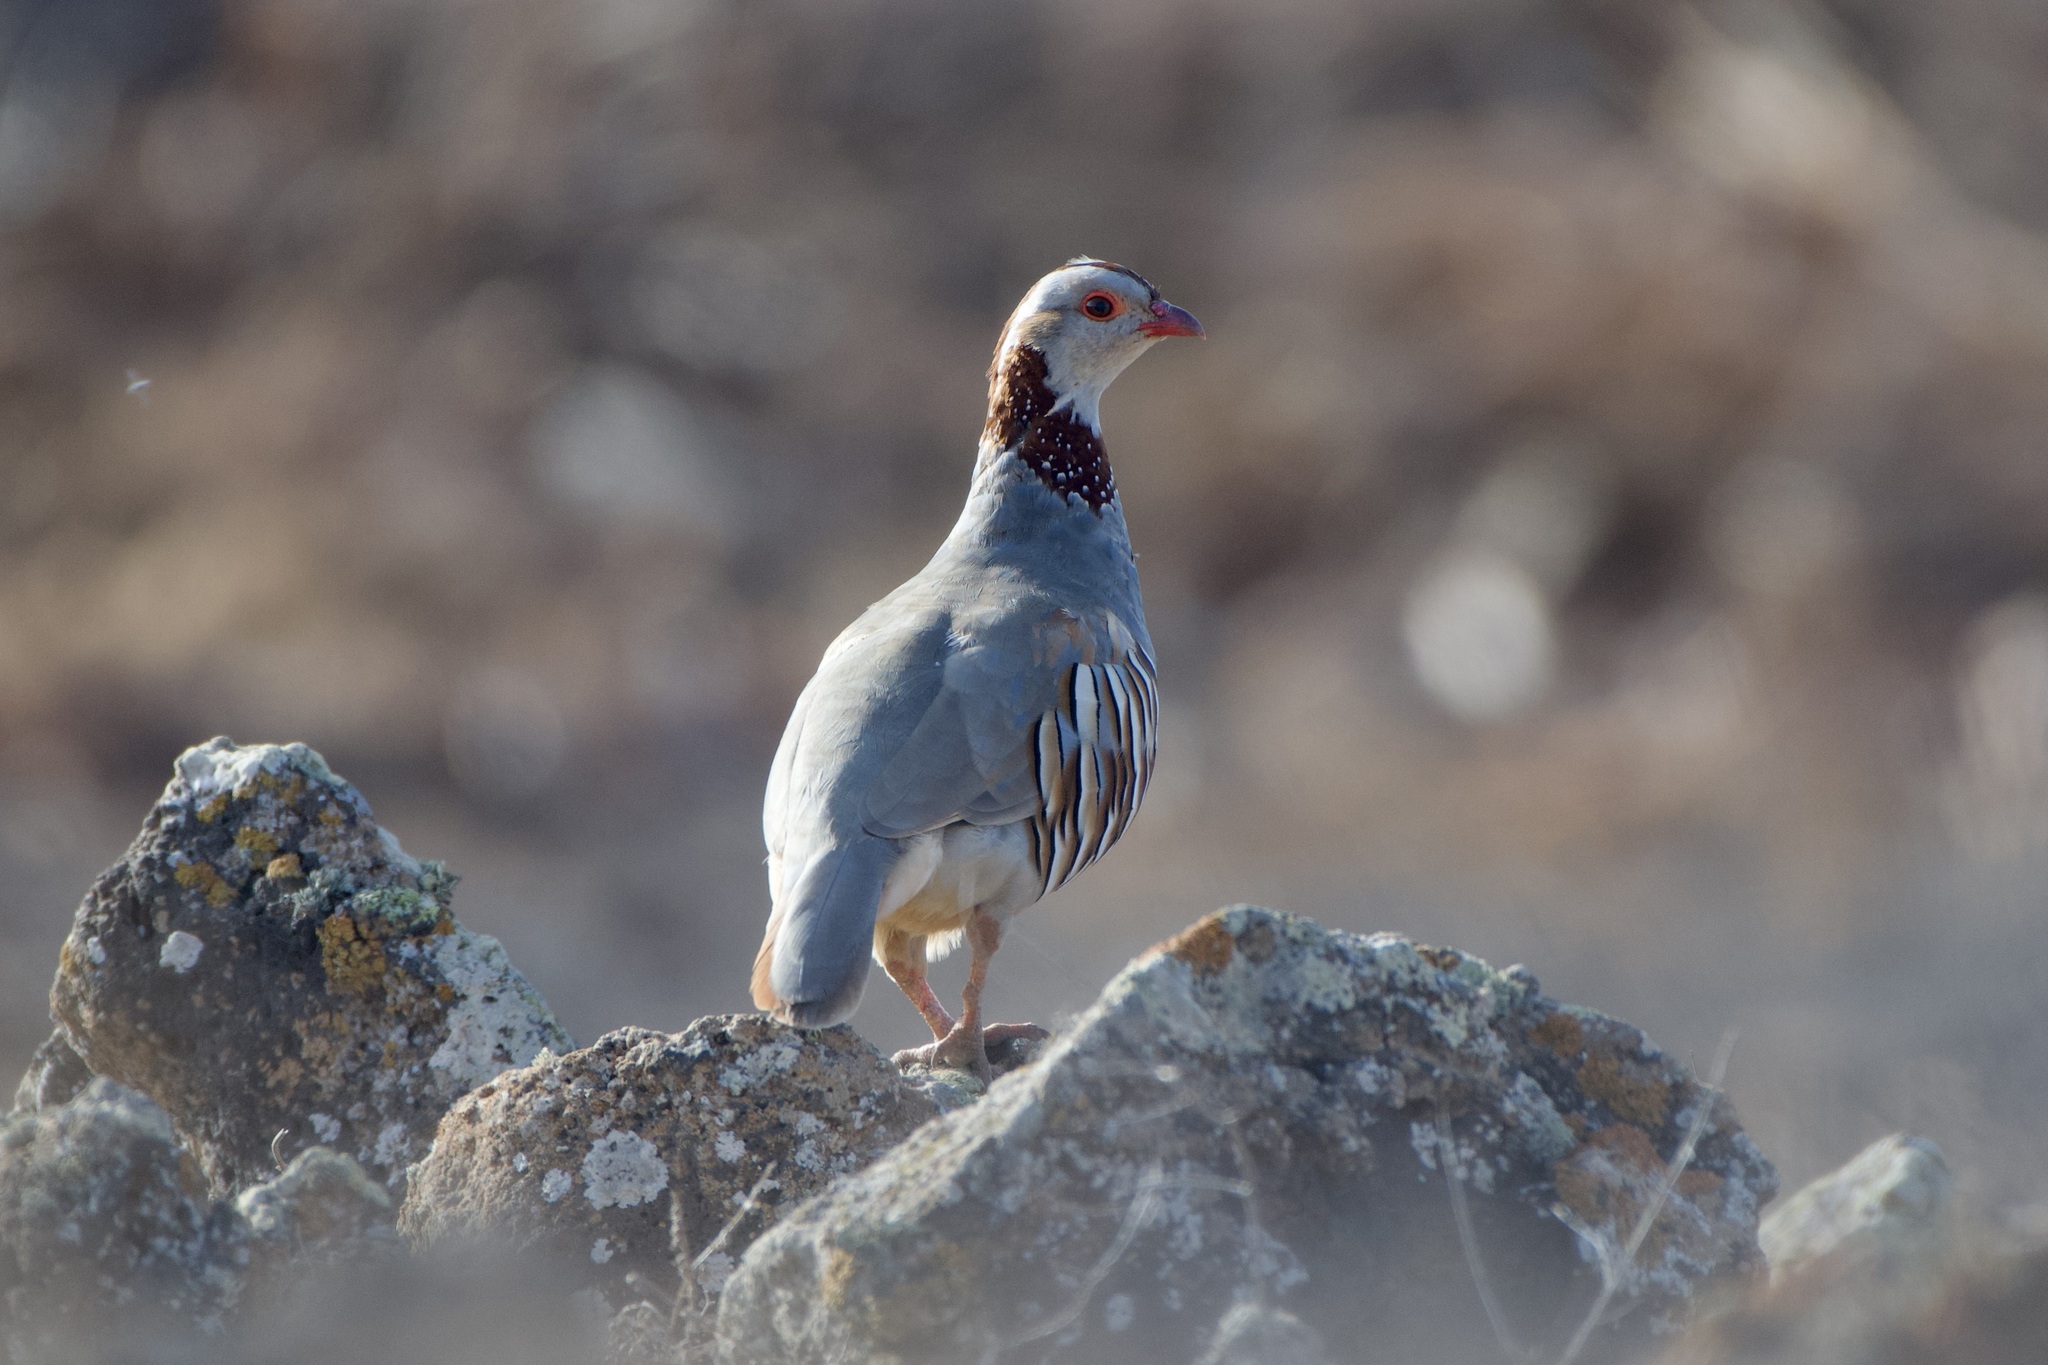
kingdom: Animalia
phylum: Chordata
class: Aves
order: Galliformes
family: Phasianidae
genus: Alectoris
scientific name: Alectoris barbara
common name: Barbary partridge
